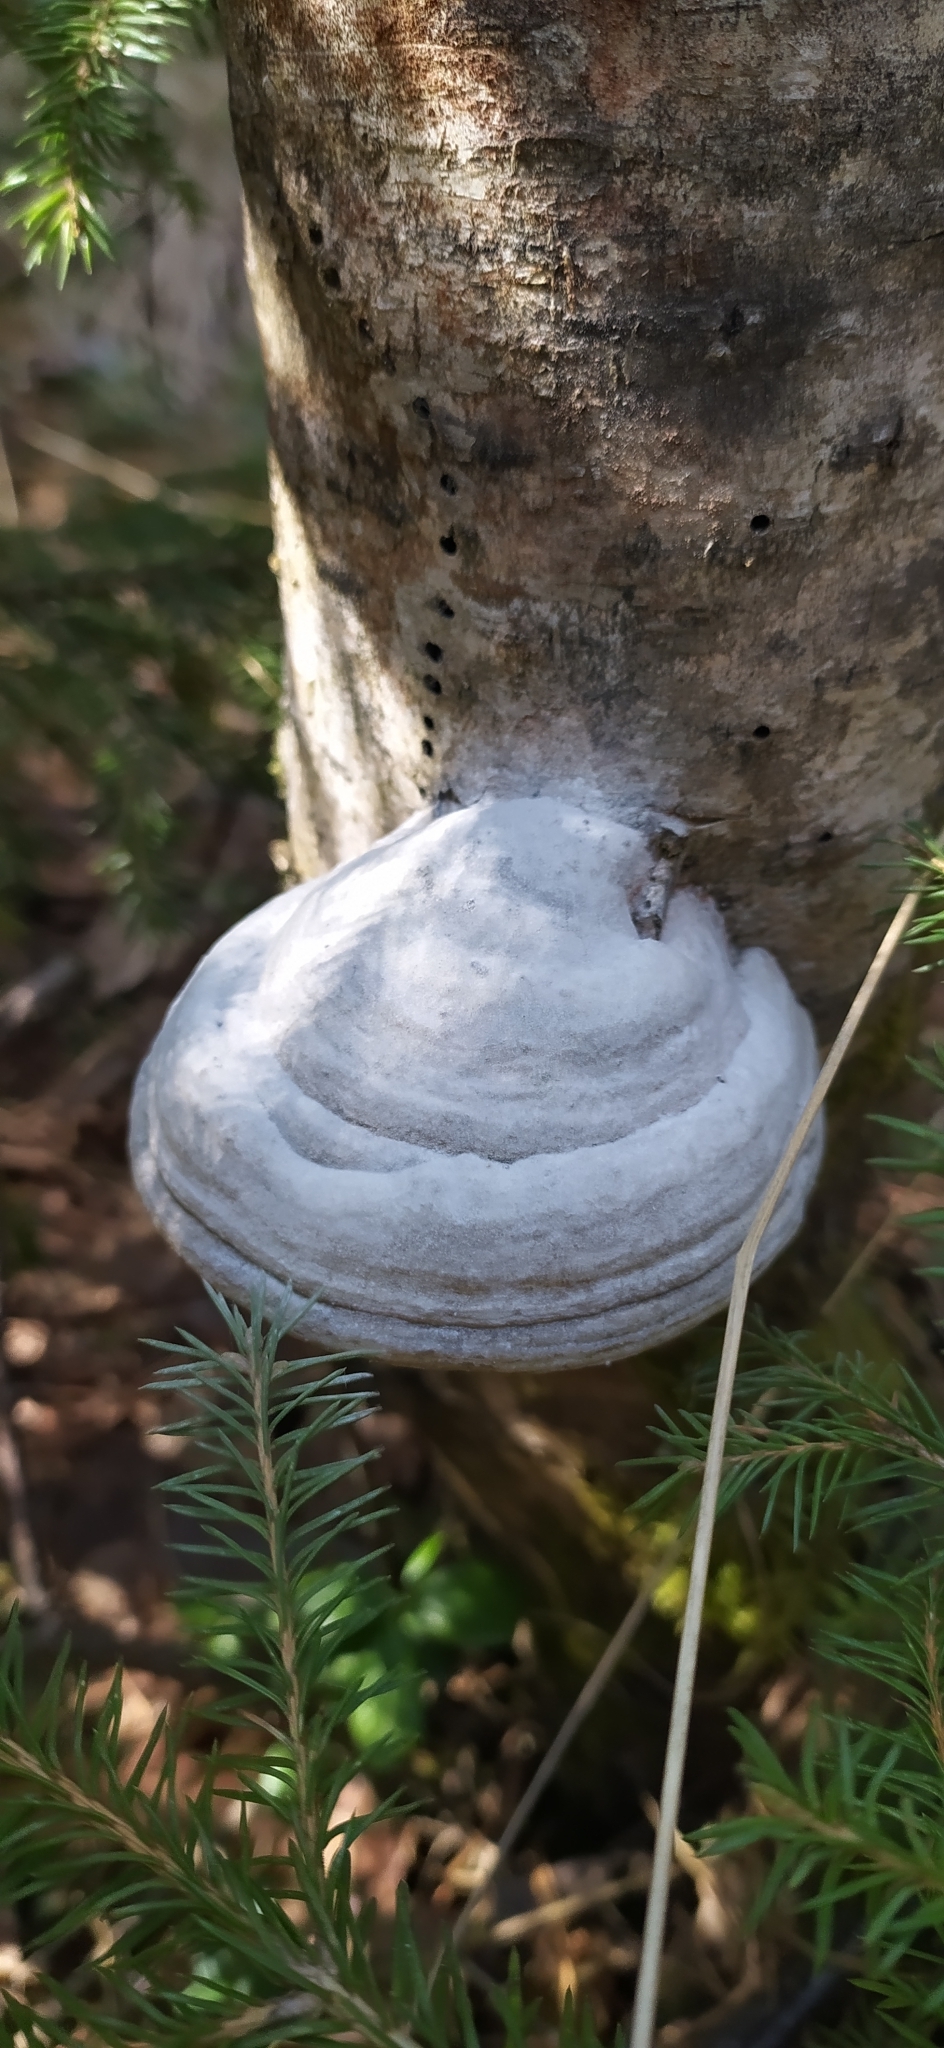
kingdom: Fungi
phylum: Basidiomycota
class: Agaricomycetes
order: Polyporales
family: Polyporaceae
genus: Fomes
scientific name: Fomes fomentarius
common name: Hoof fungus
